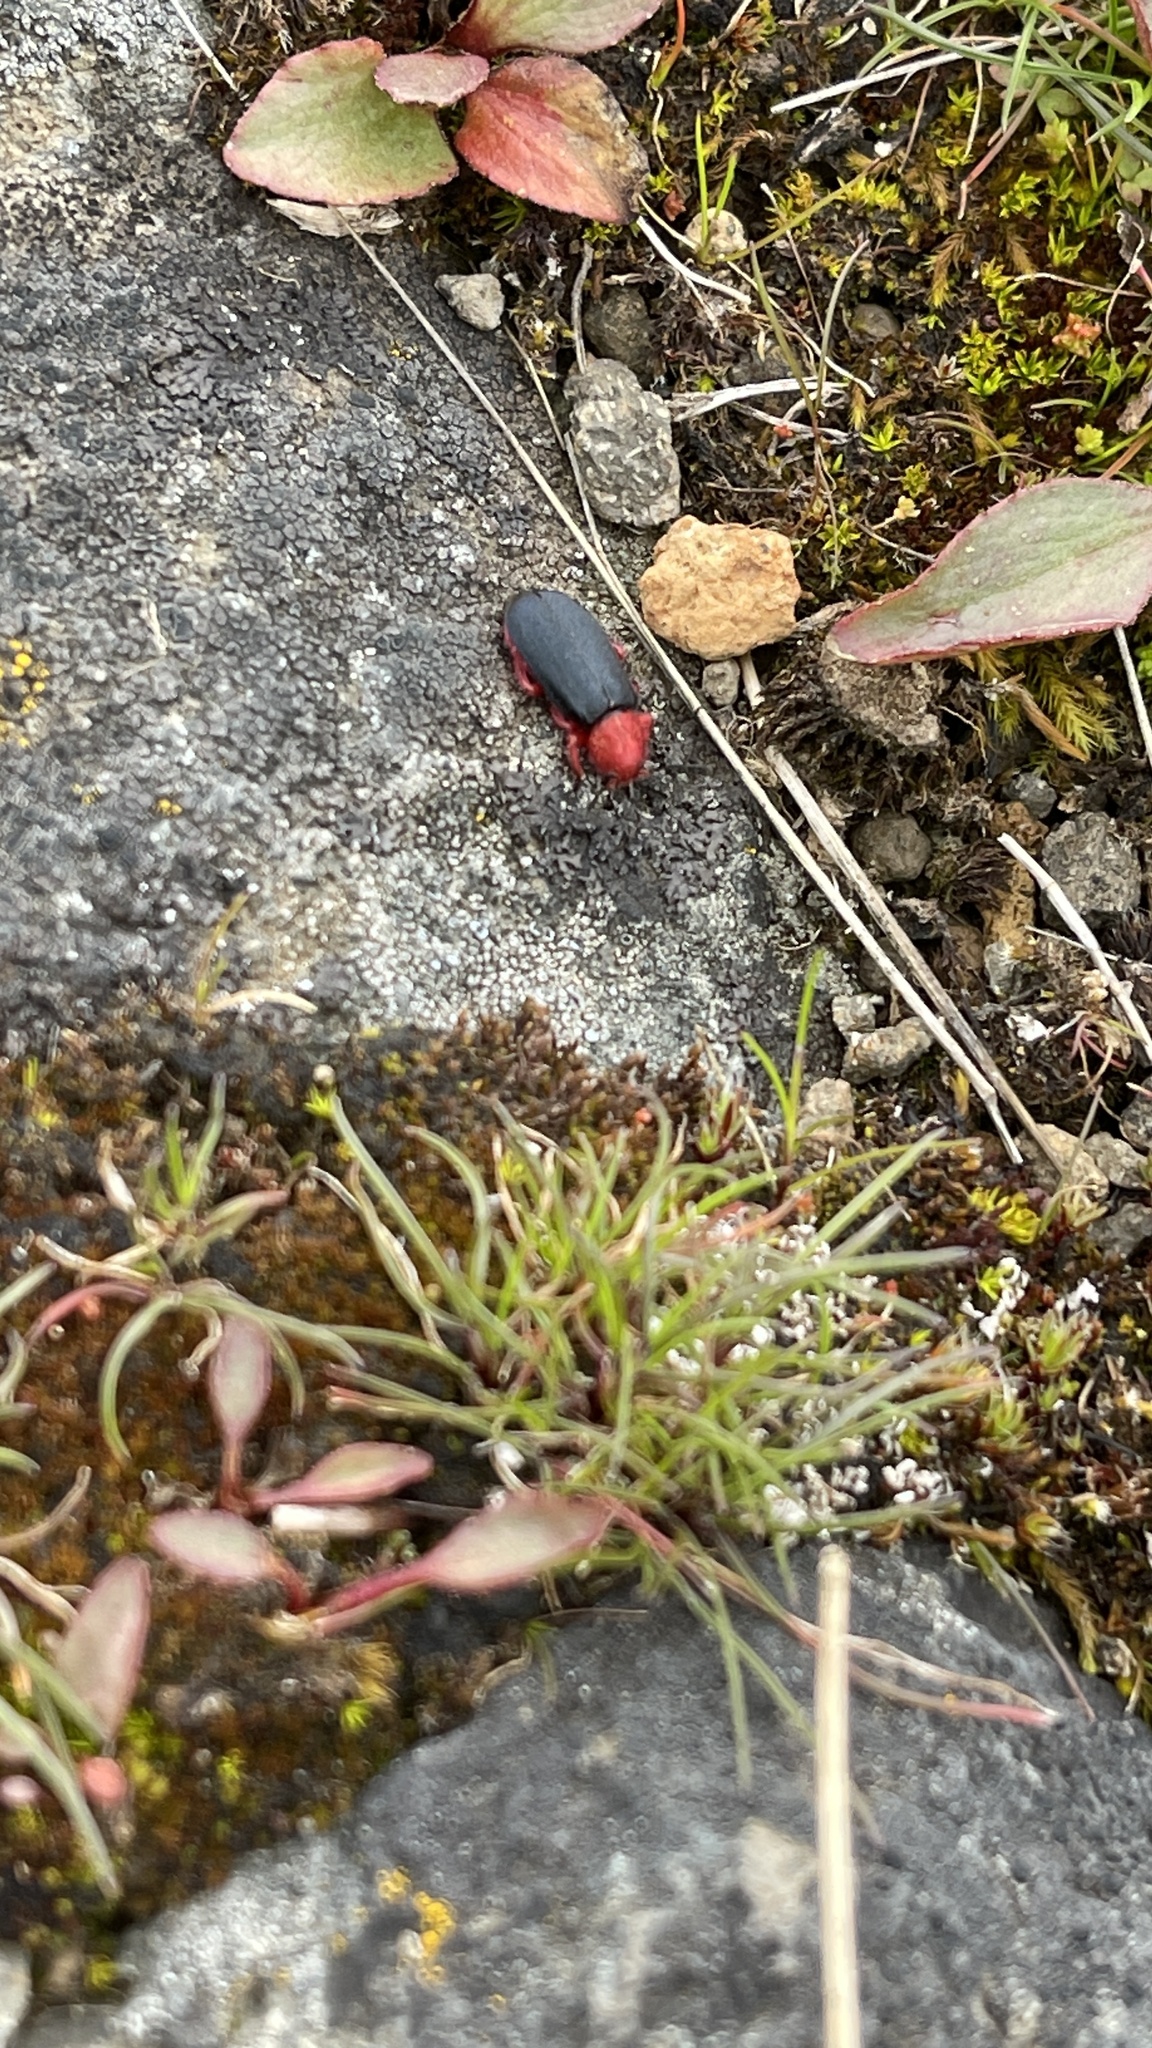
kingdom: Animalia
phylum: Arthropoda
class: Insecta
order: Coleoptera
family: Cleridae
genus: Chariessa
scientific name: Chariessa
